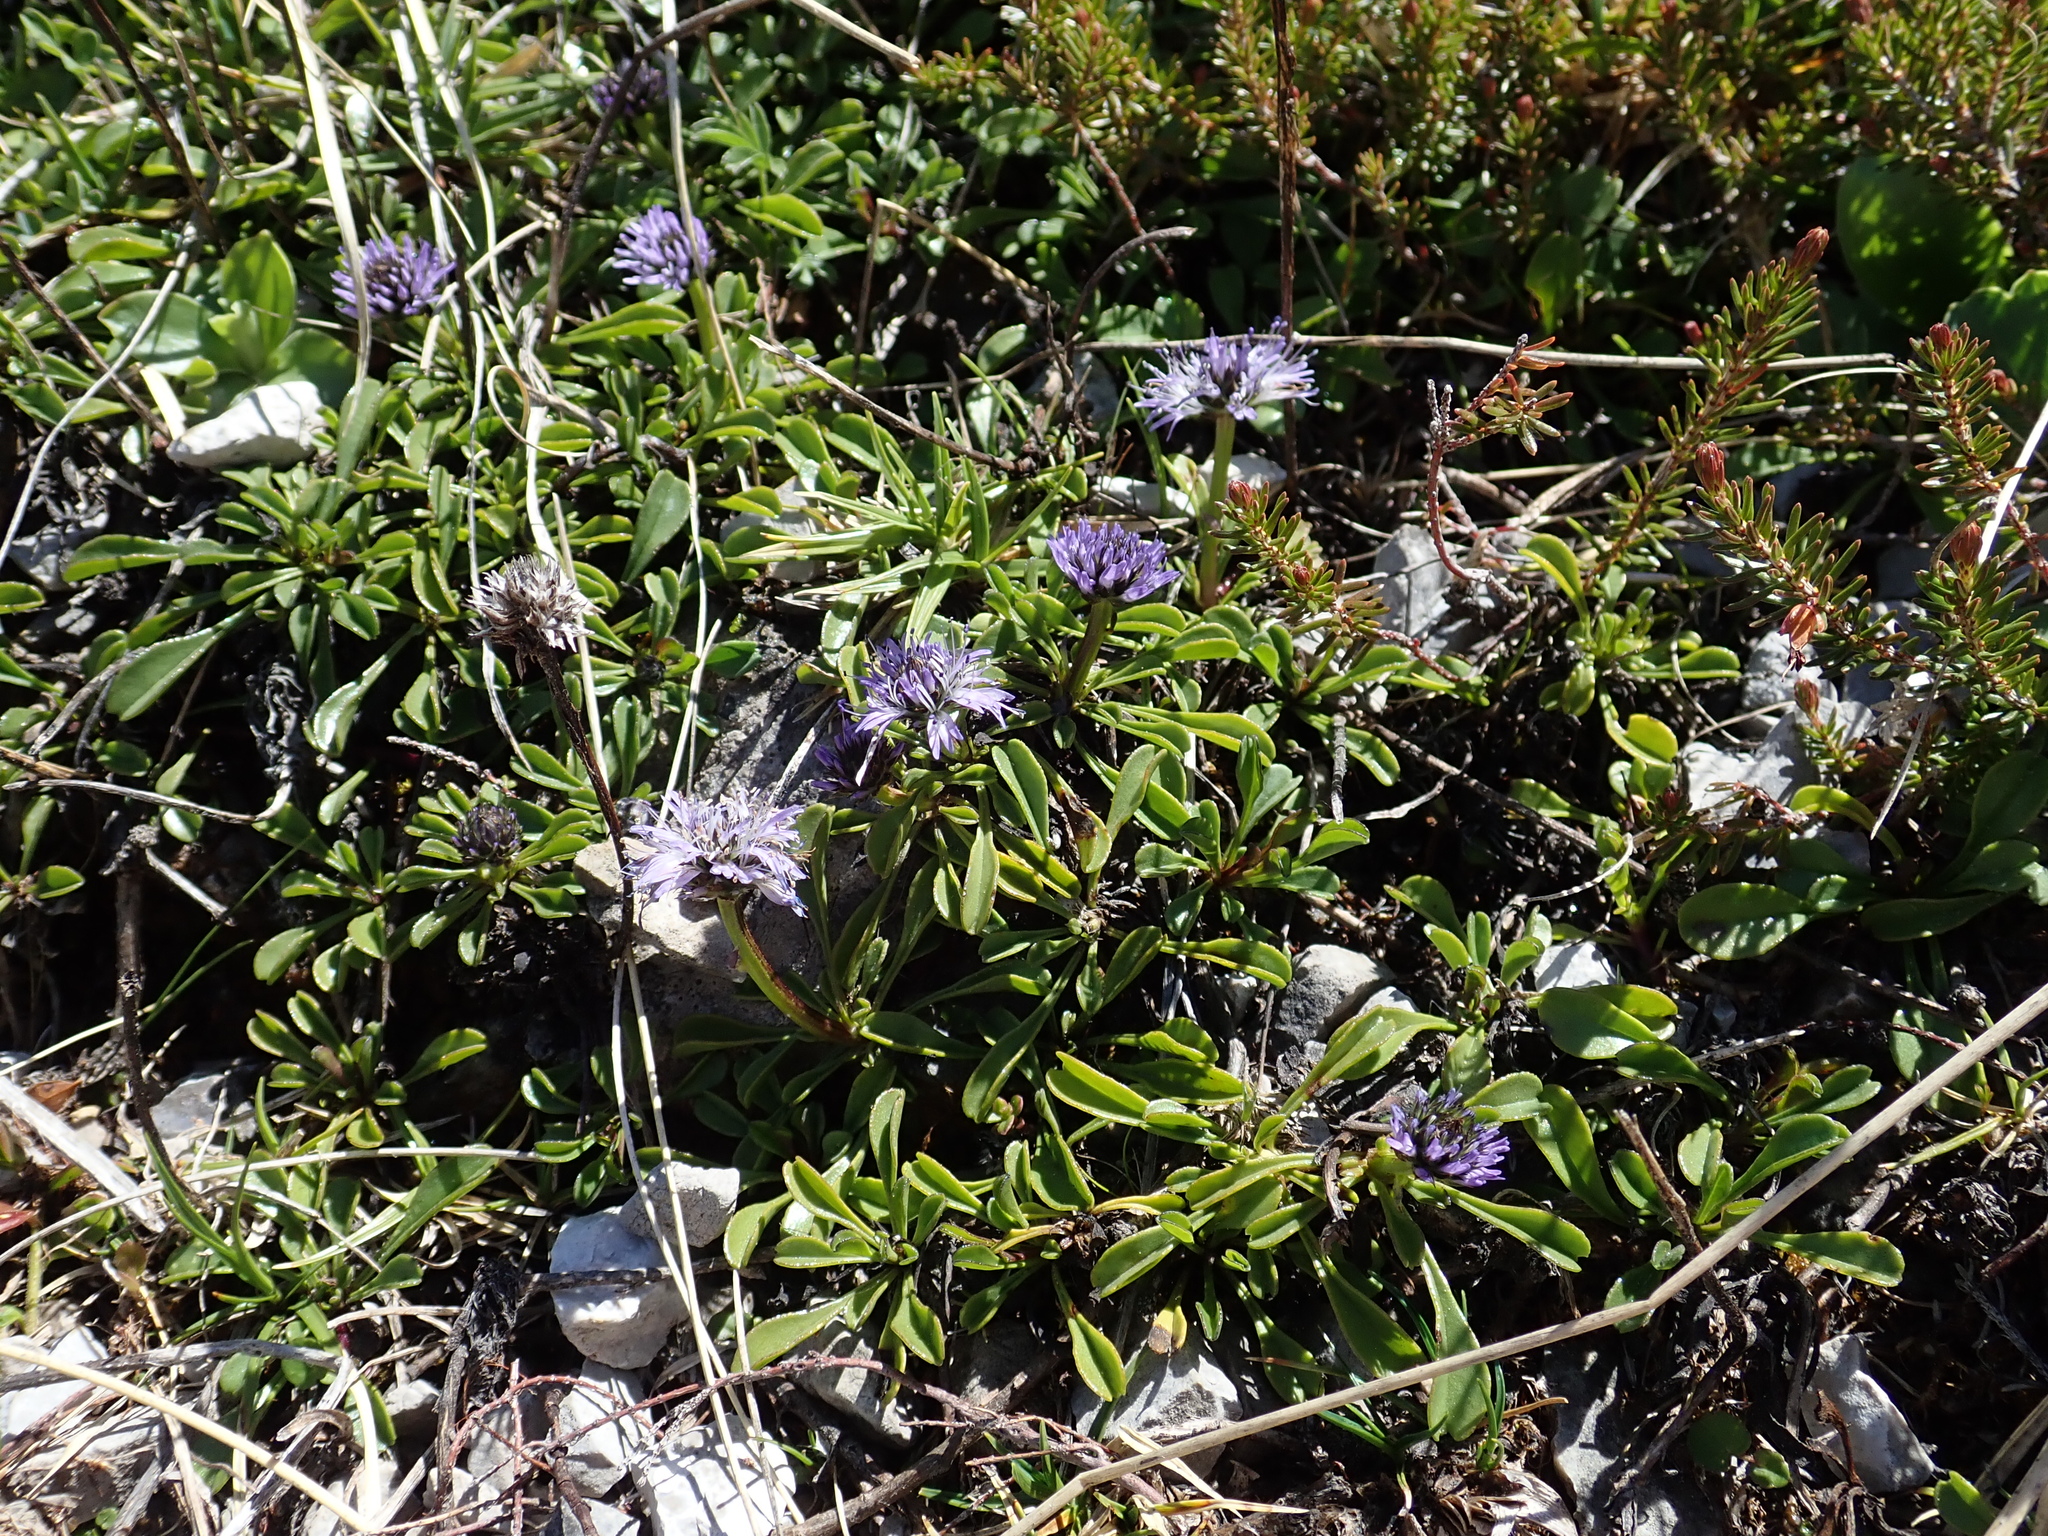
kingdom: Plantae
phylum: Tracheophyta
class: Magnoliopsida
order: Lamiales
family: Plantaginaceae
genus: Globularia
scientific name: Globularia cordifolia
